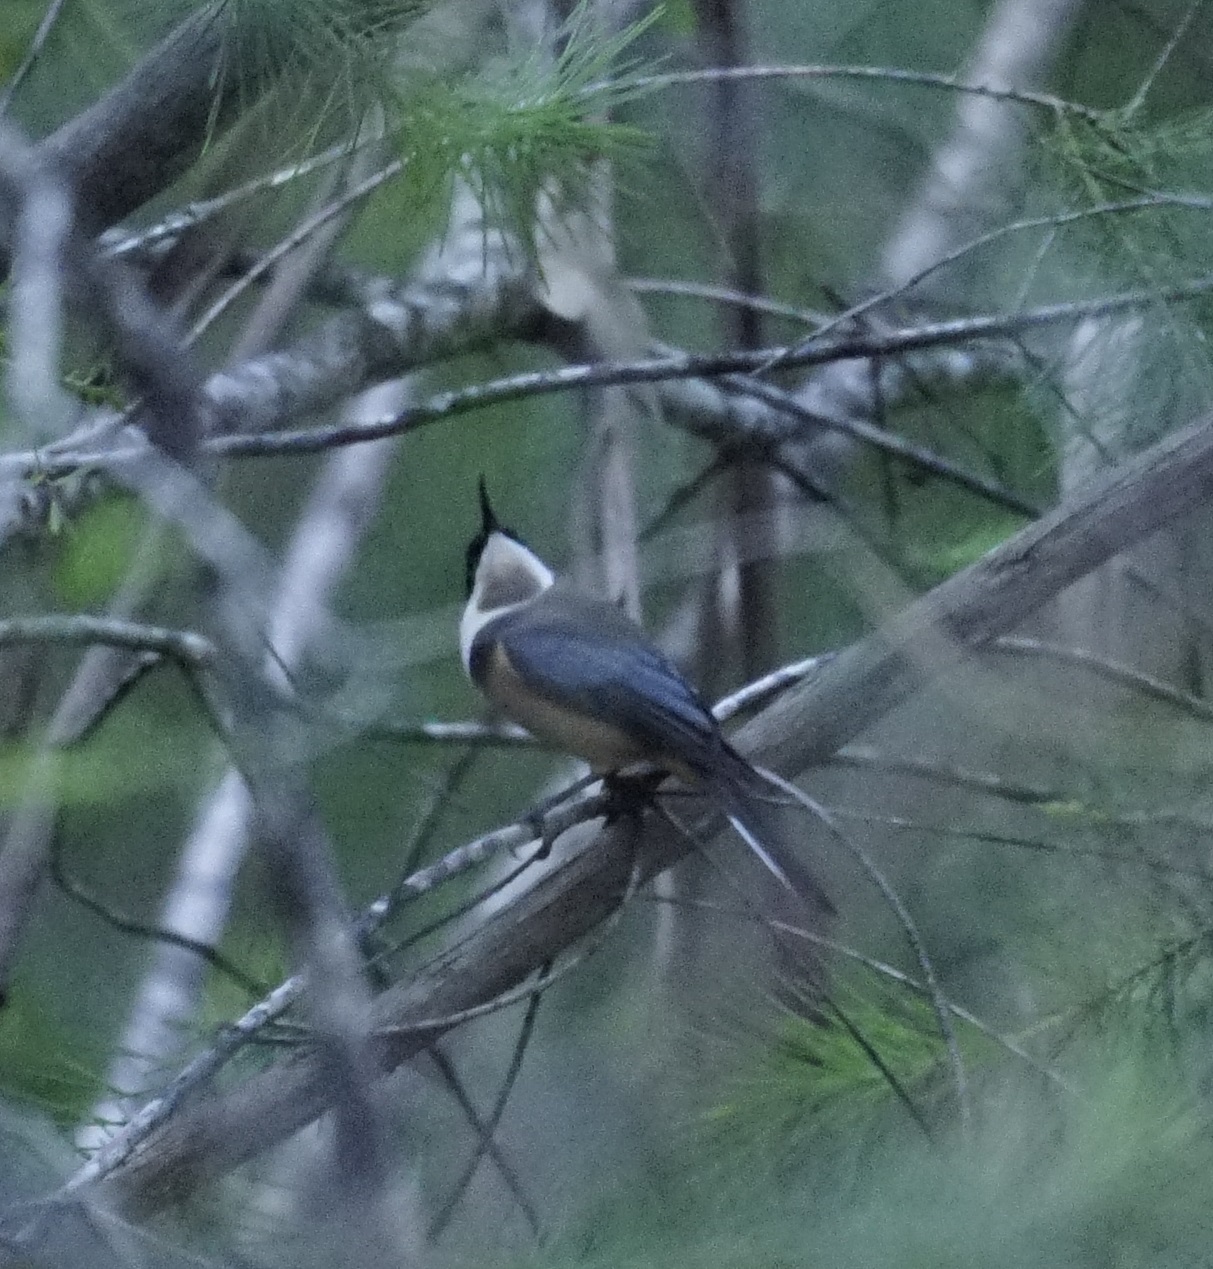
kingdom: Animalia
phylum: Chordata
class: Aves
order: Passeriformes
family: Meliphagidae
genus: Acanthorhynchus
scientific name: Acanthorhynchus tenuirostris
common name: Eastern spinebill
